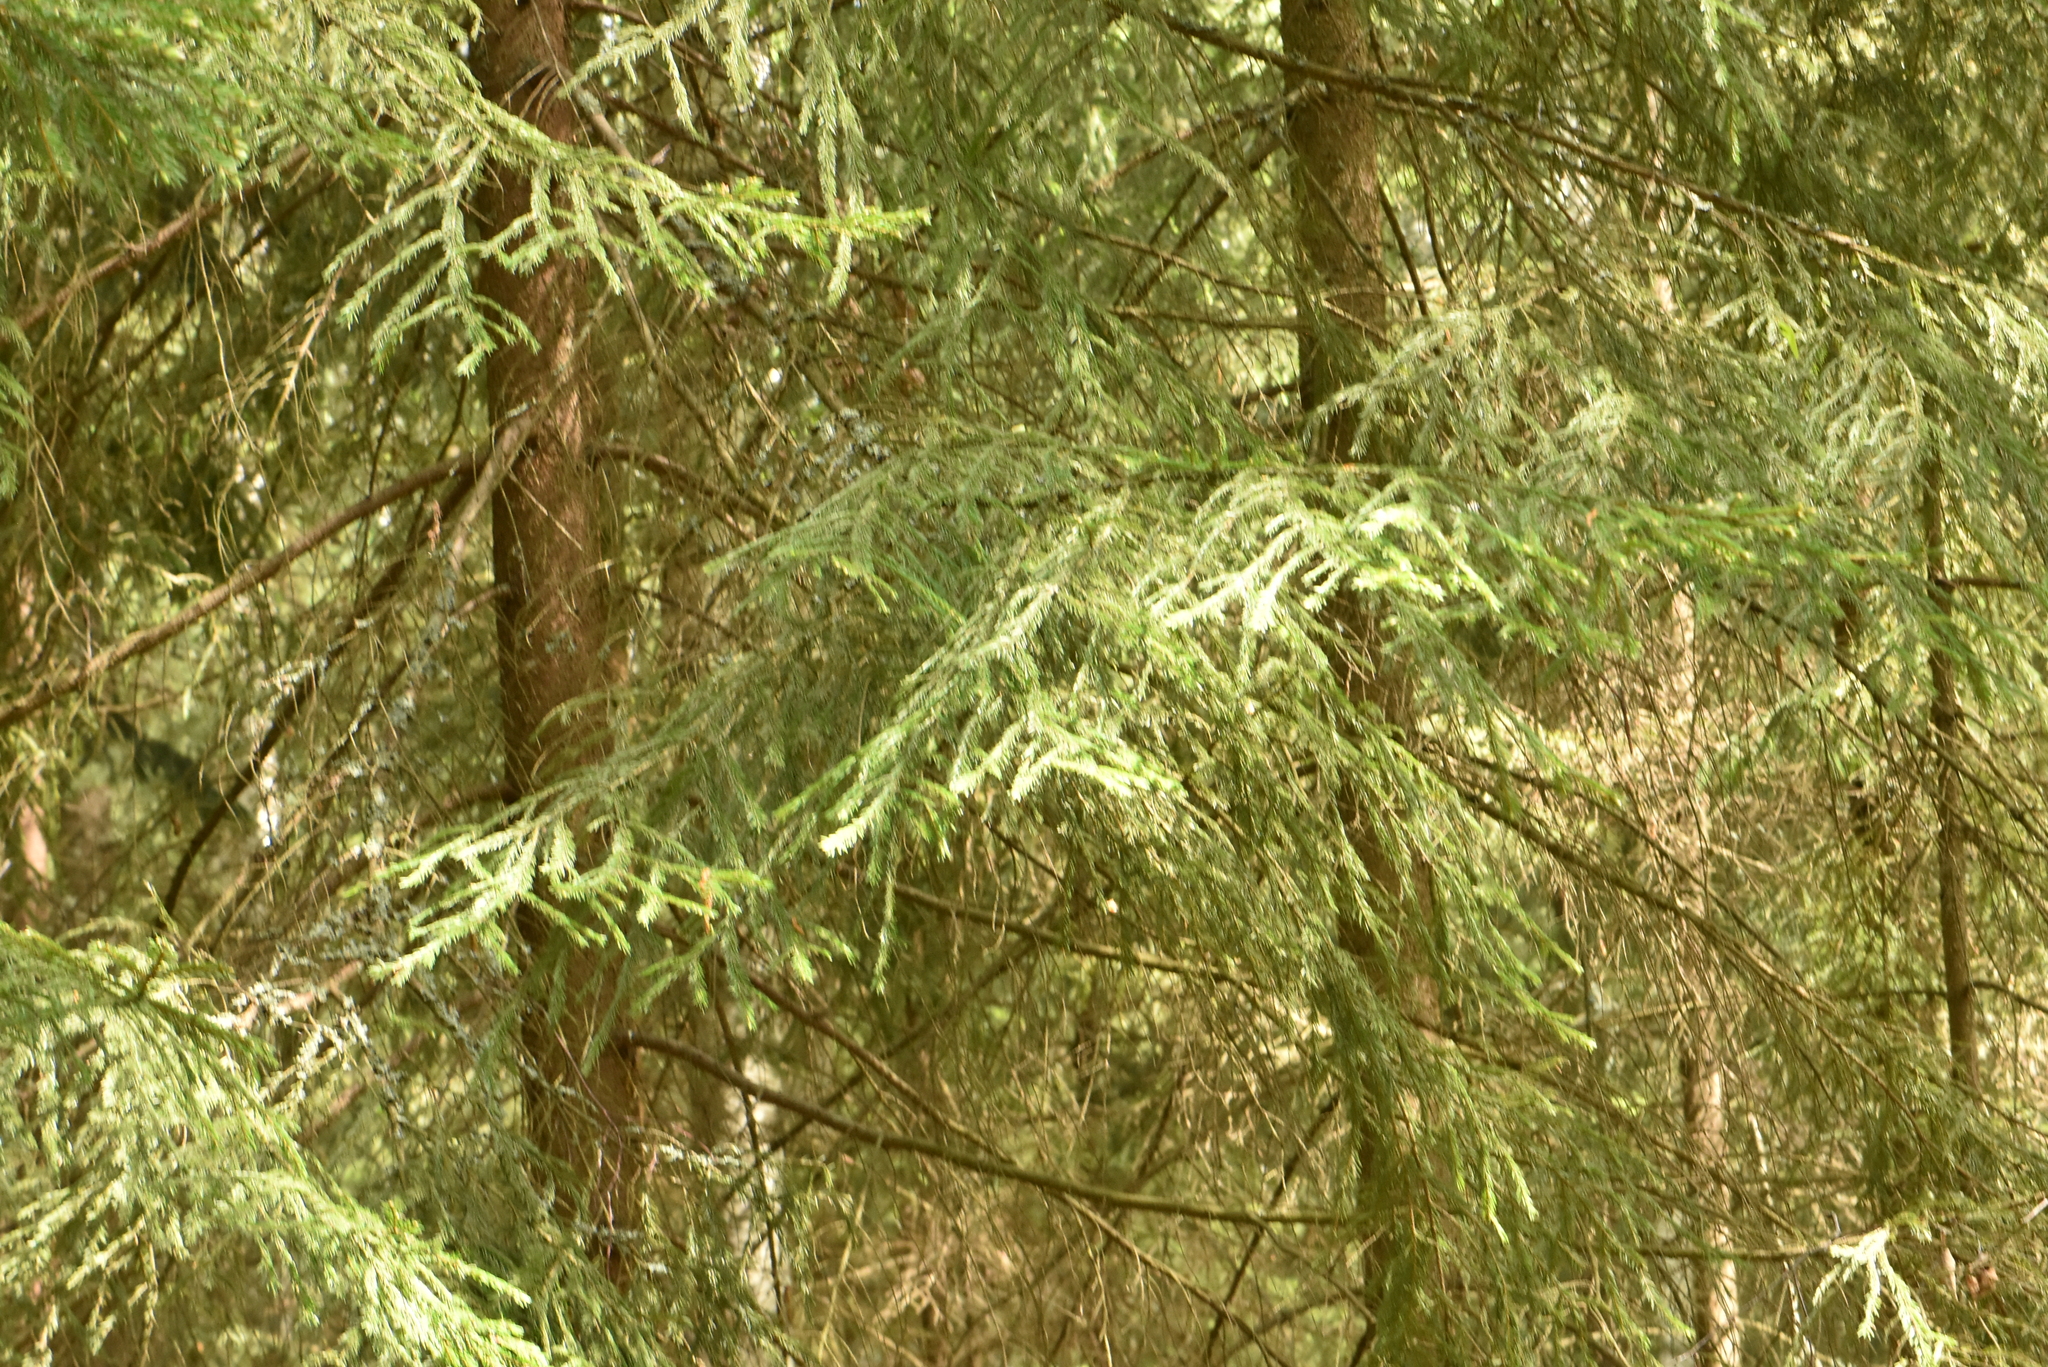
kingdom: Plantae
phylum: Tracheophyta
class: Pinopsida
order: Pinales
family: Pinaceae
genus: Picea
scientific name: Picea abies
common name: Norway spruce
